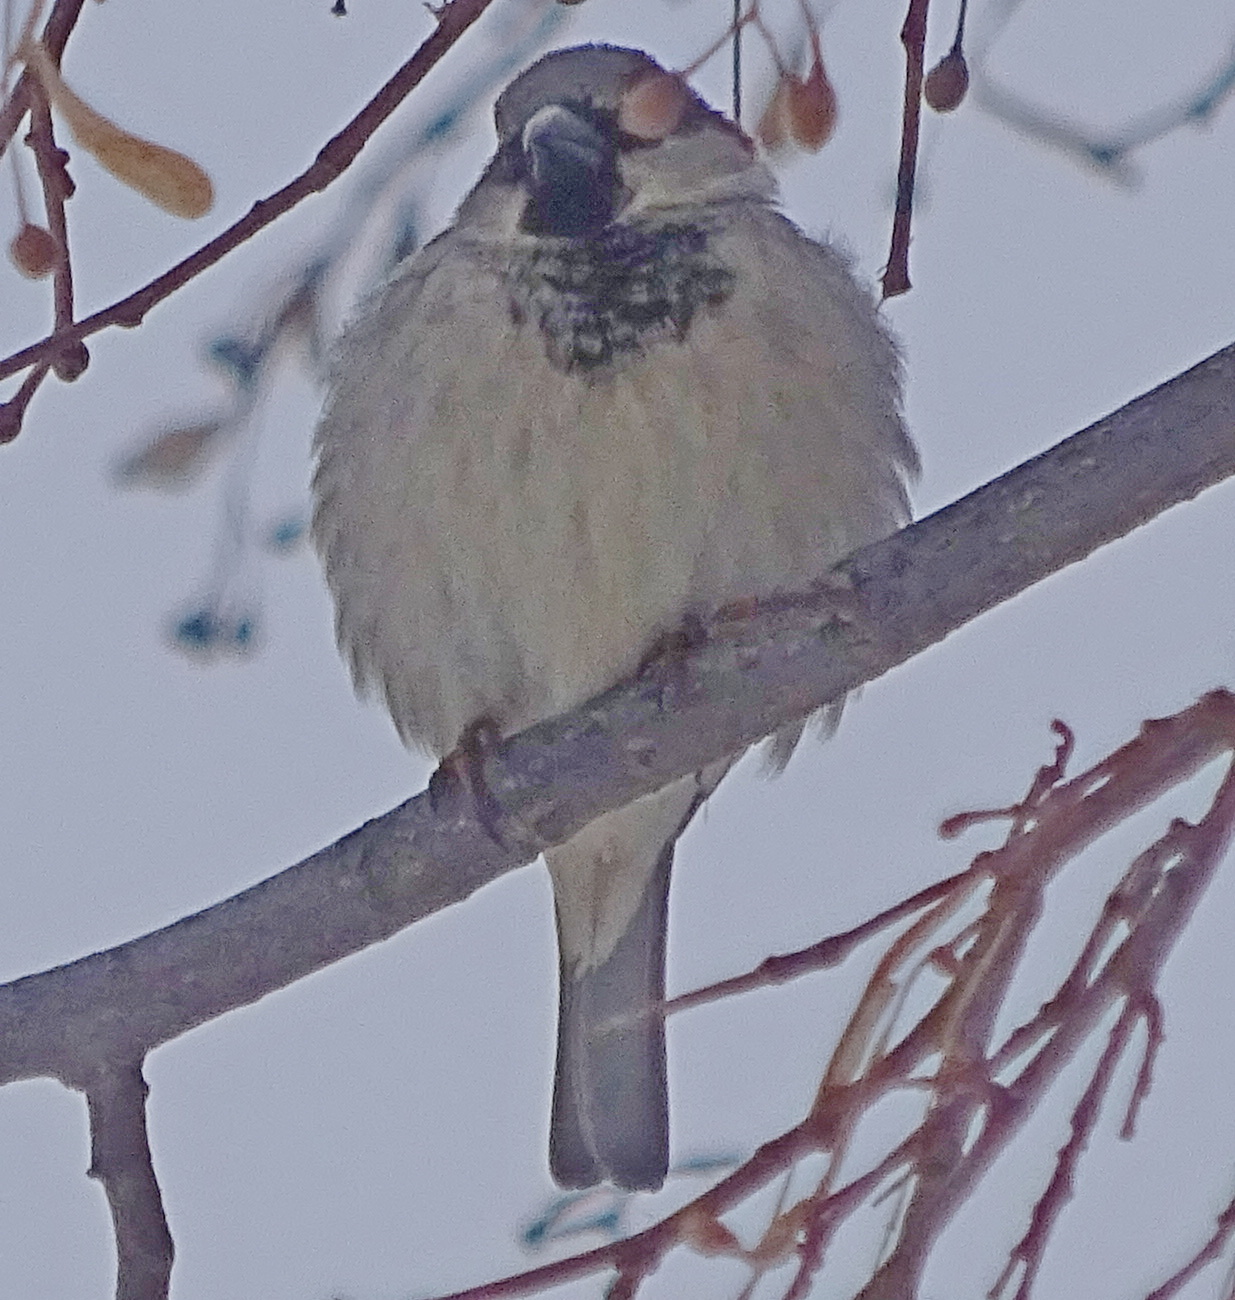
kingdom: Animalia
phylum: Chordata
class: Aves
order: Passeriformes
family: Passeridae
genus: Passer
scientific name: Passer domesticus
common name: House sparrow
